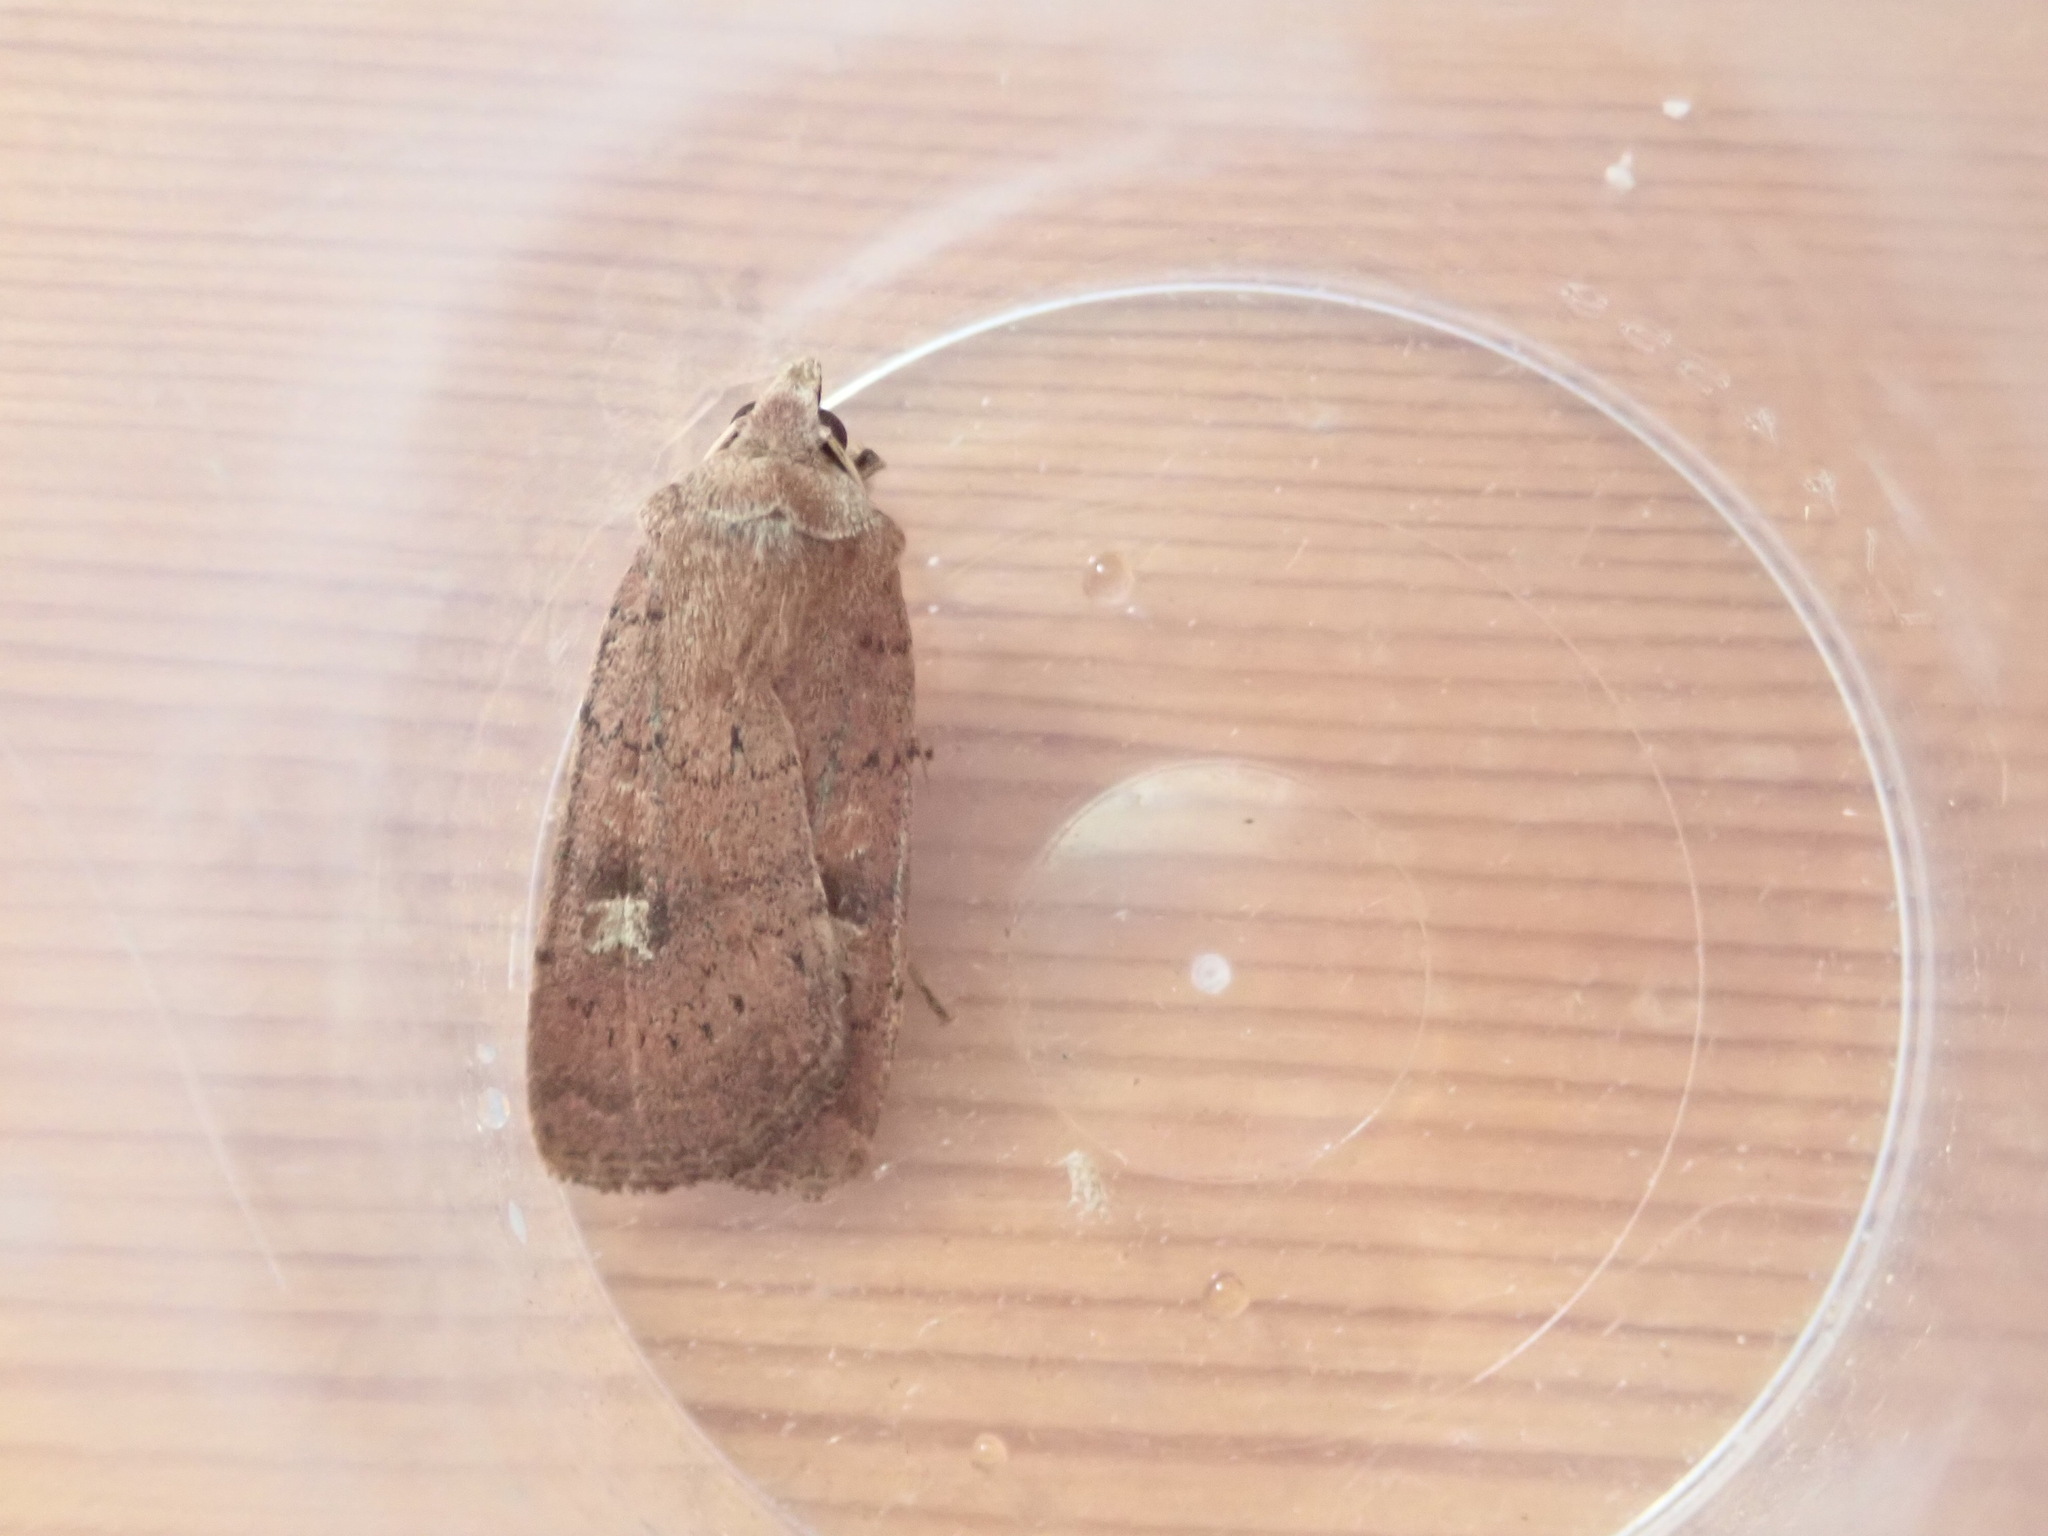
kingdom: Animalia
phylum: Arthropoda
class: Insecta
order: Lepidoptera
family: Noctuidae
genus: Xestia
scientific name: Xestia xanthographa
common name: Square-spot rustic
